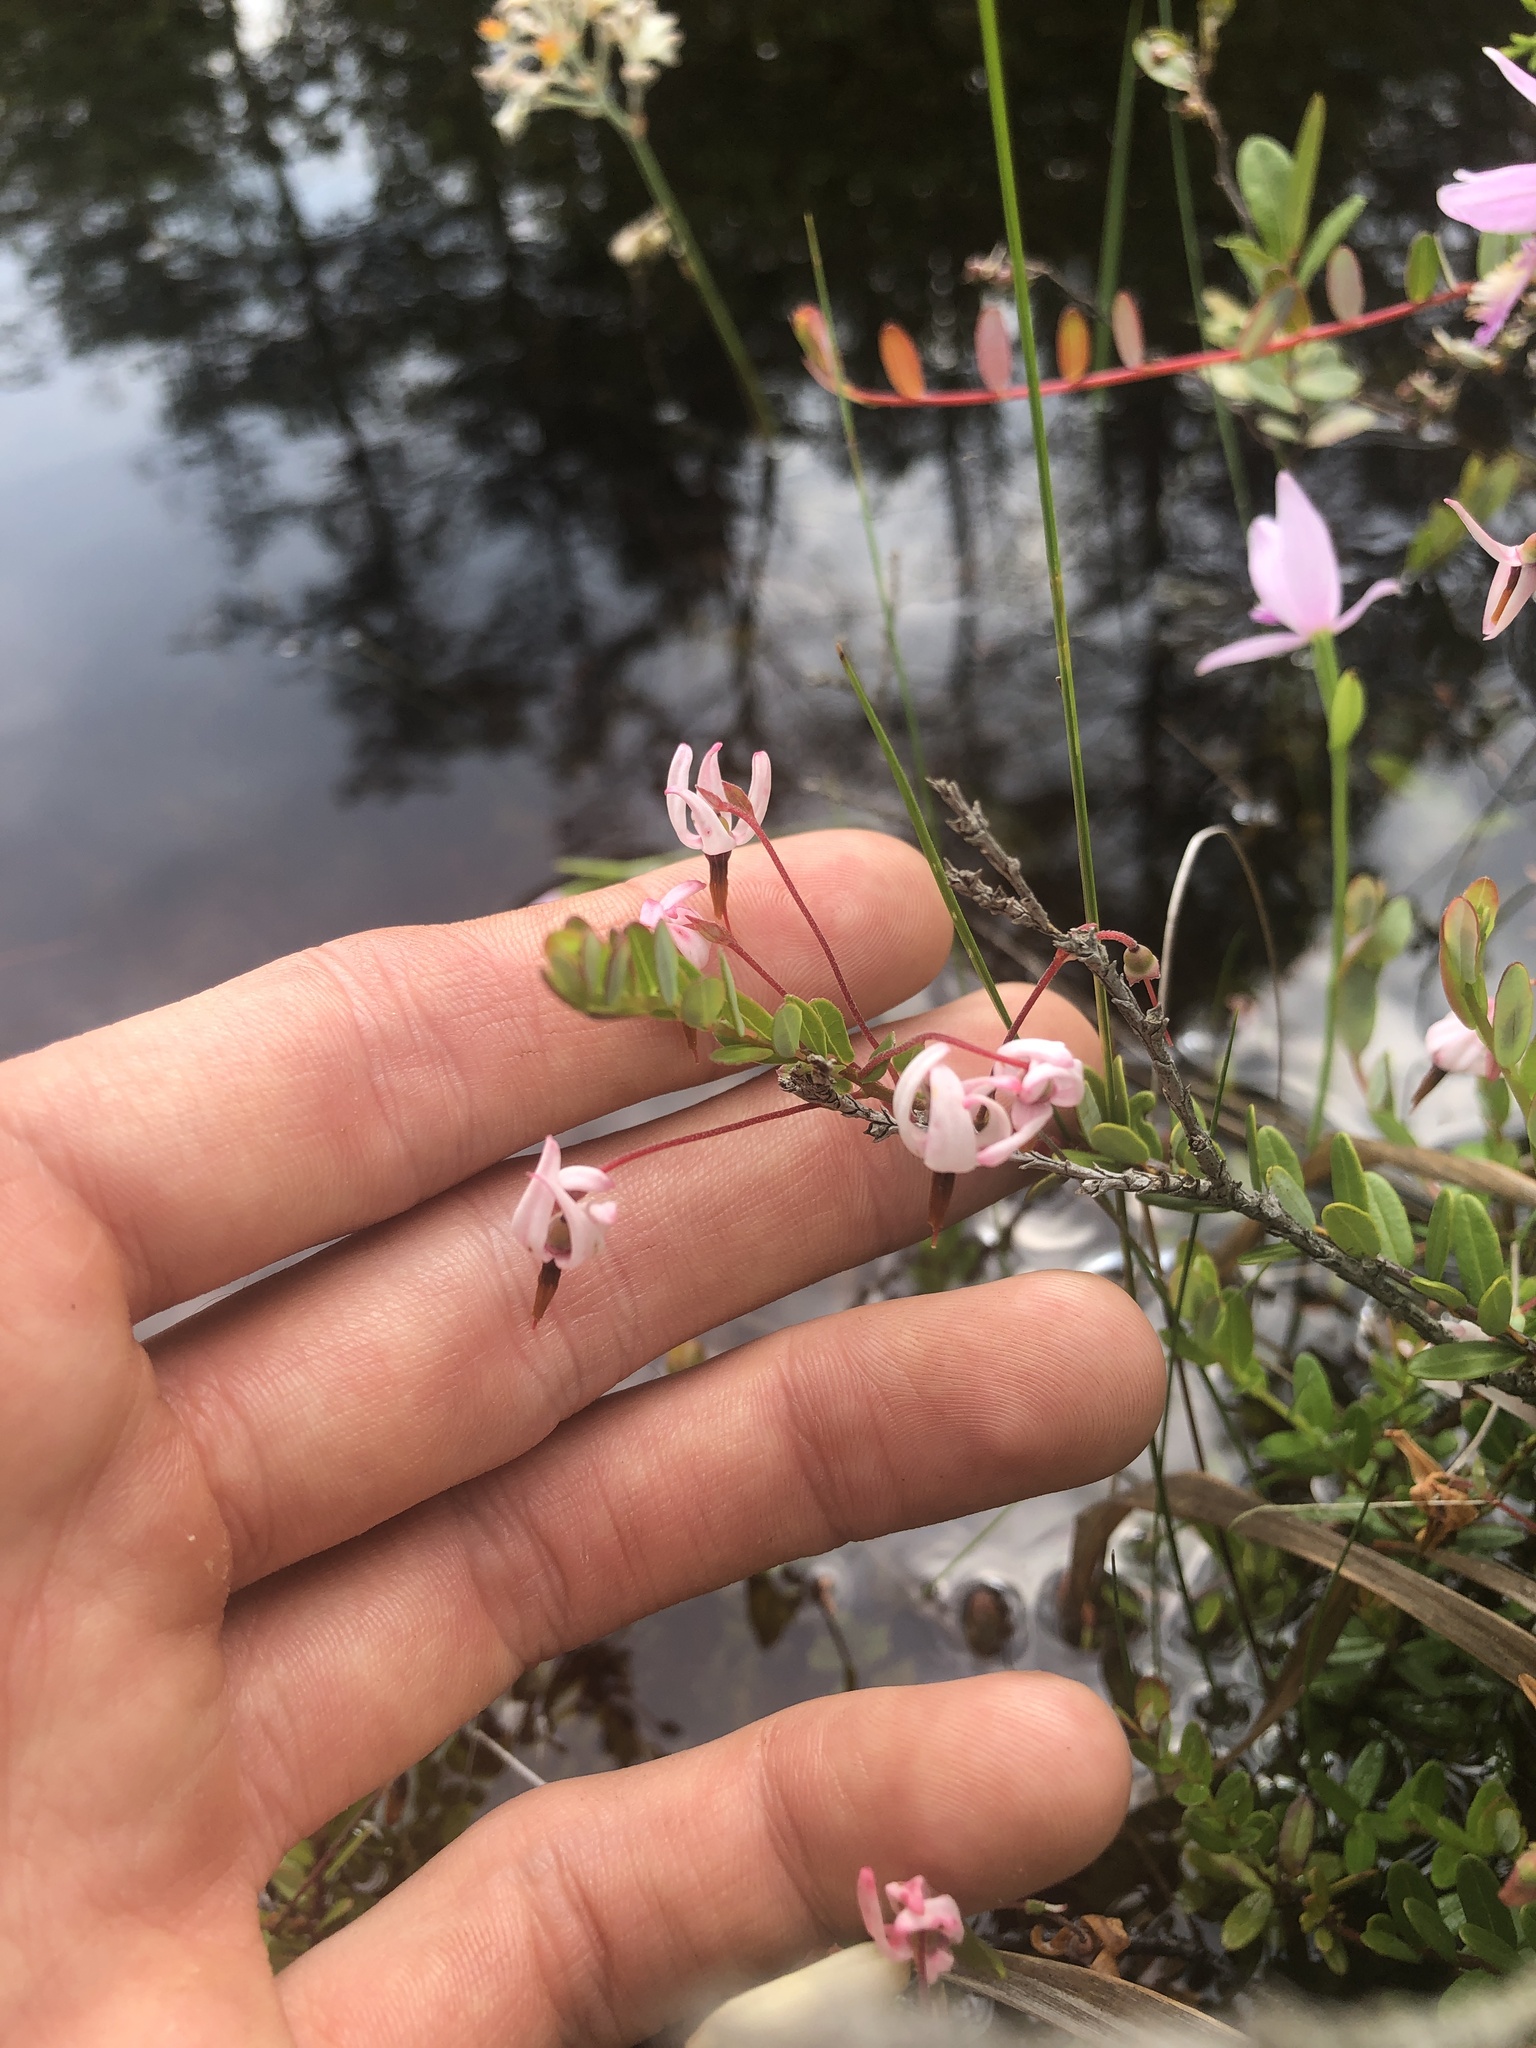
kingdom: Plantae
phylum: Tracheophyta
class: Magnoliopsida
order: Ericales
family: Ericaceae
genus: Vaccinium
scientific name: Vaccinium macrocarpon
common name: American cranberry
